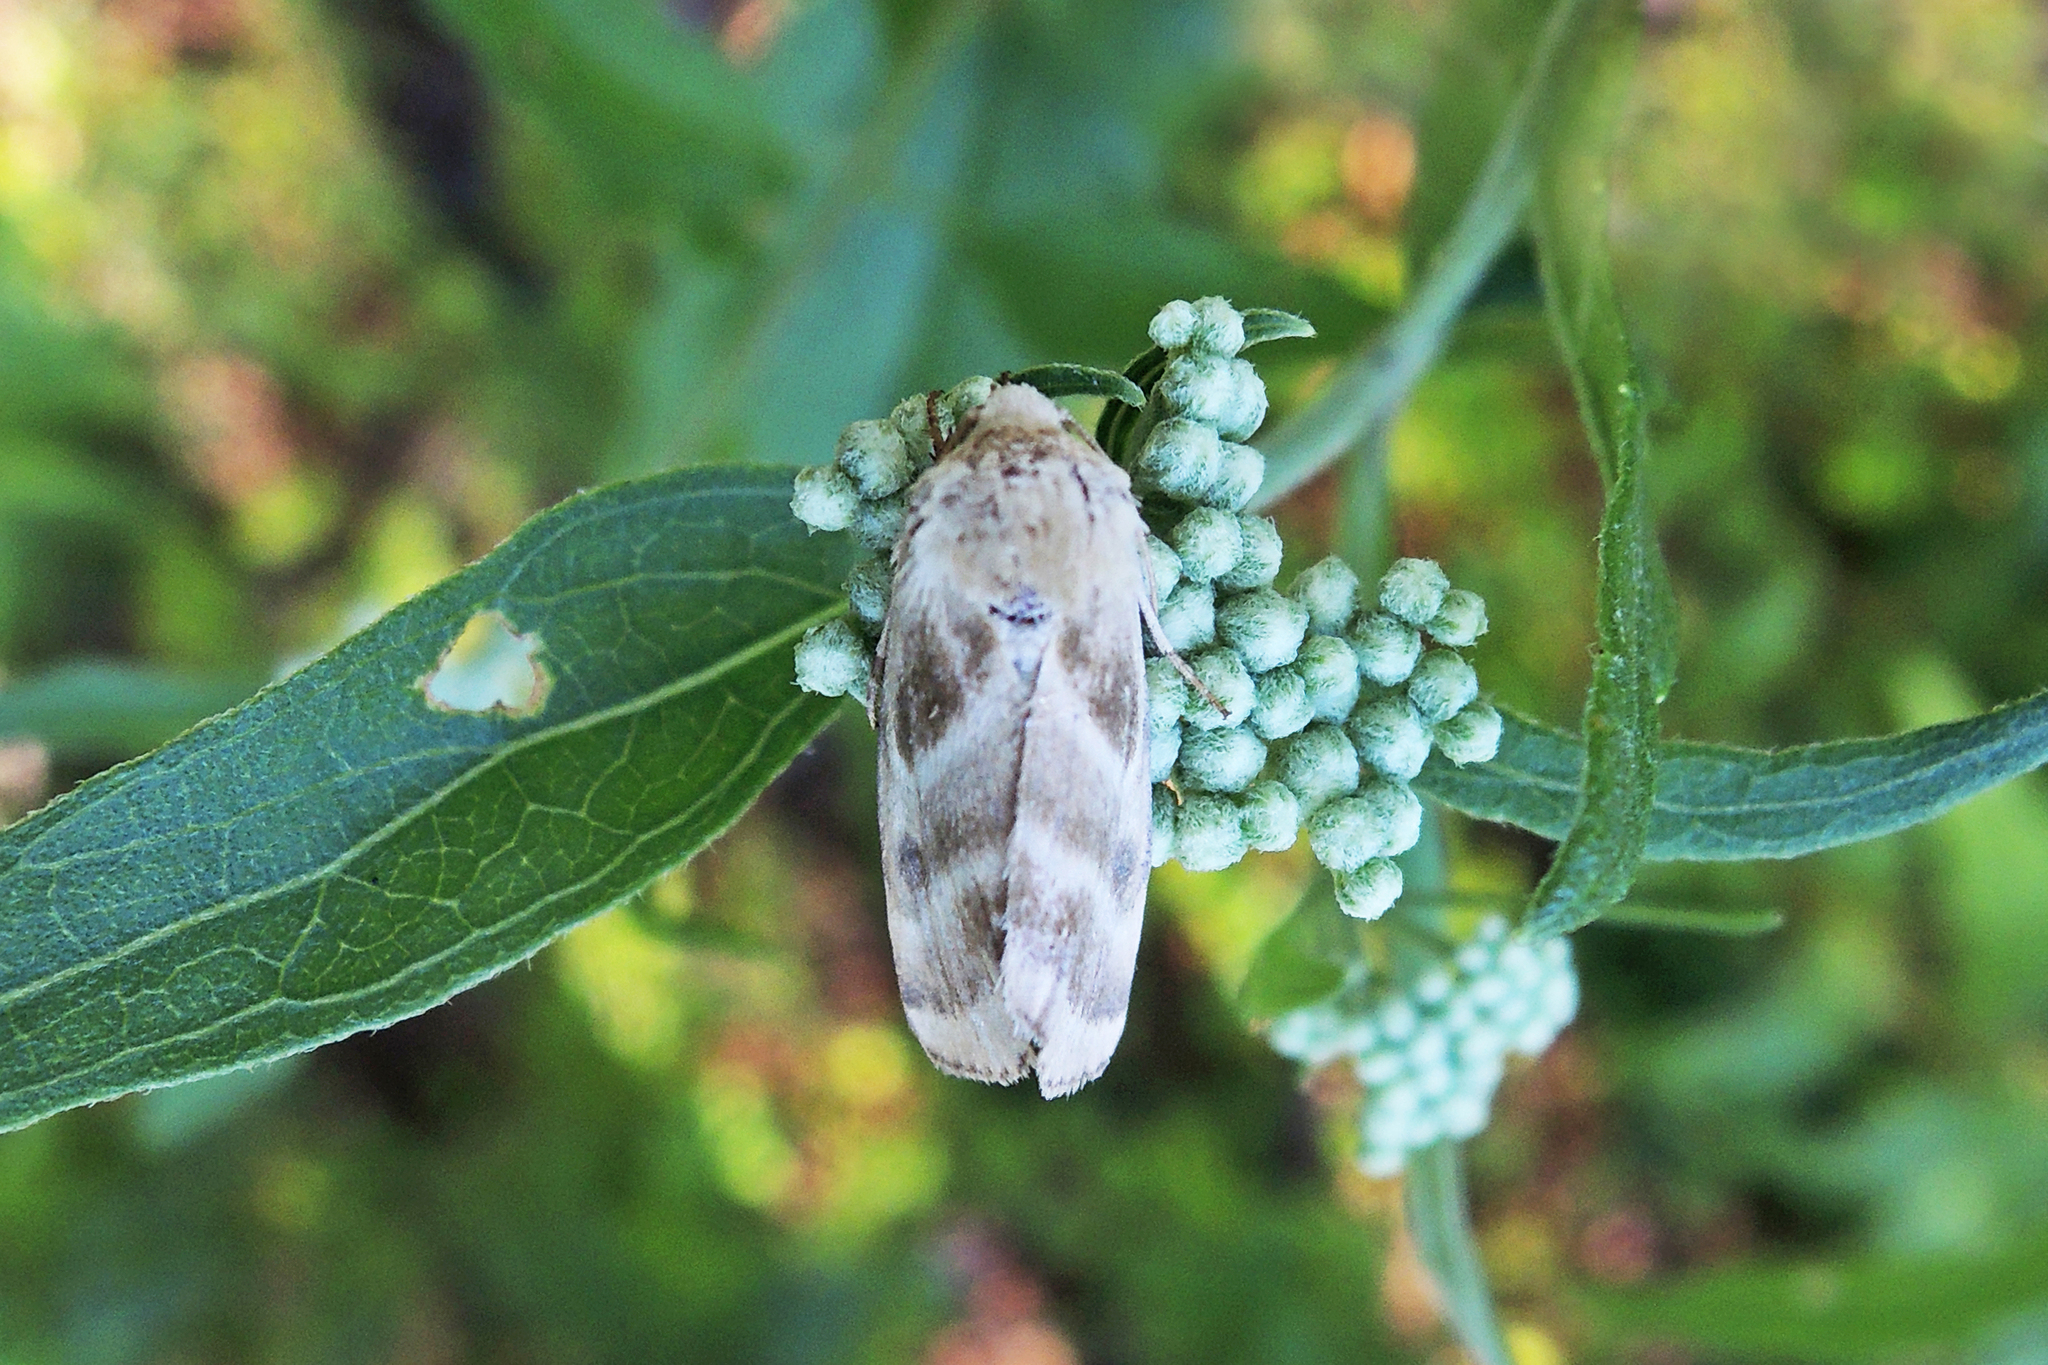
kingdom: Animalia
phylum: Arthropoda
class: Insecta
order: Lepidoptera
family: Noctuidae
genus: Schinia
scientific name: Schinia trifascia
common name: Three-lined flower moth
